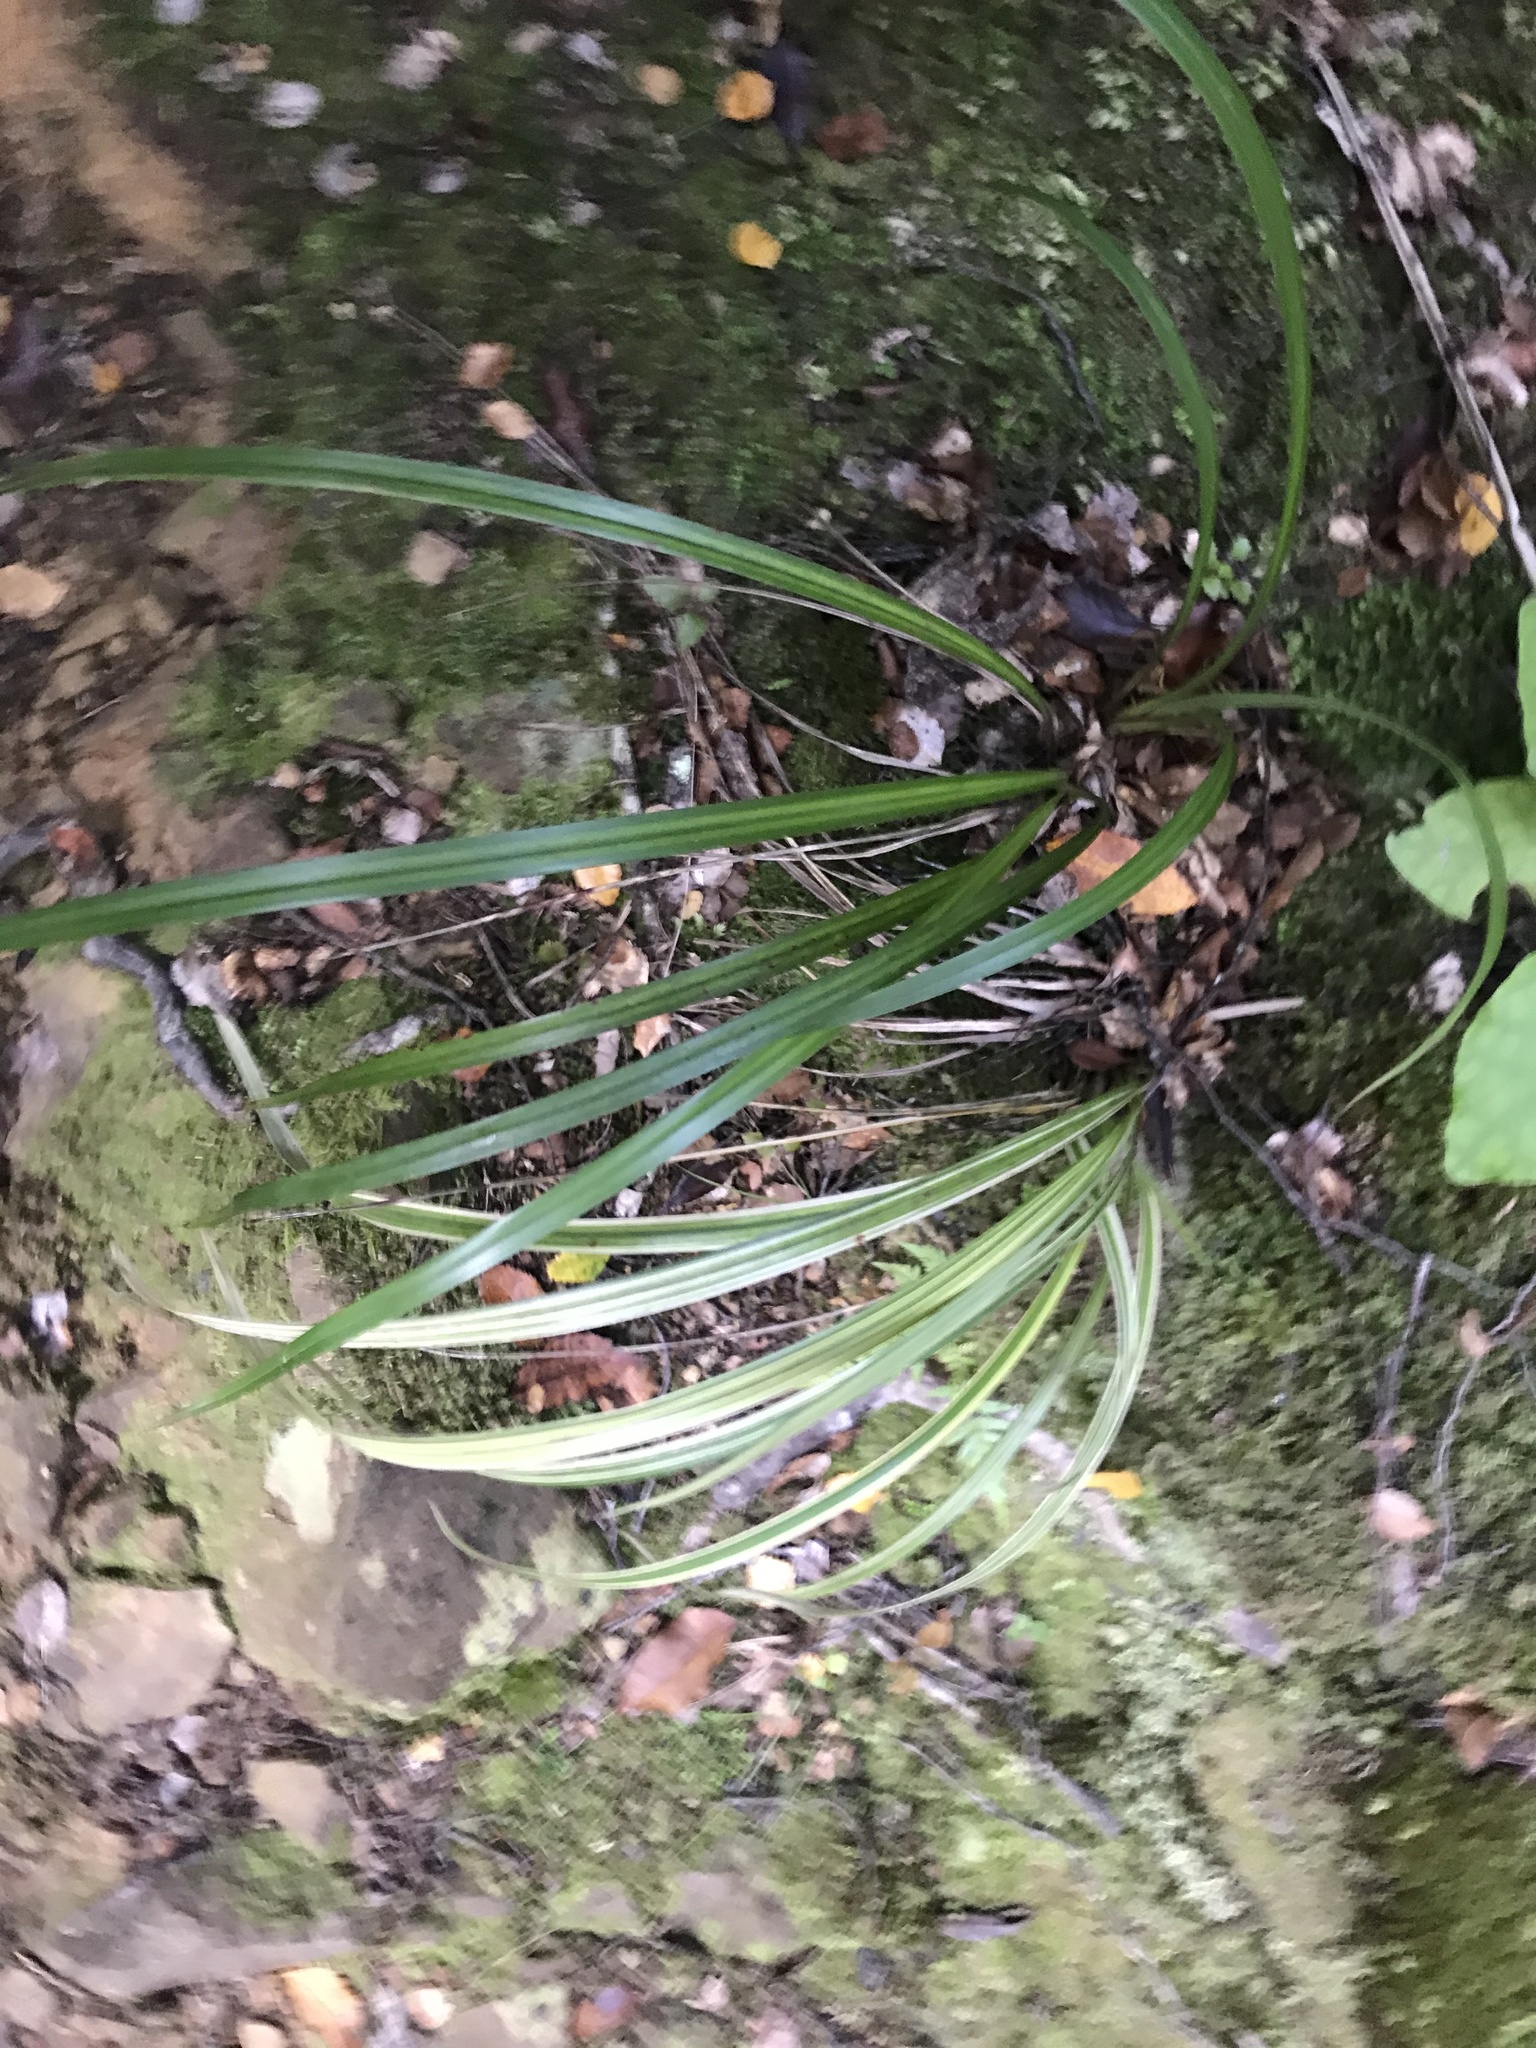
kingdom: Plantae
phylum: Tracheophyta
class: Liliopsida
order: Asparagales
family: Asphodelaceae
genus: Dianella
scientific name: Dianella nigra
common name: New zealand-blueberry
